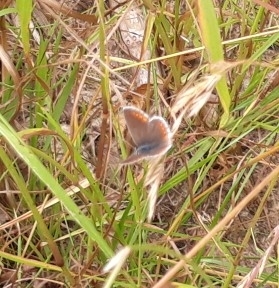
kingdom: Animalia
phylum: Arthropoda
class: Insecta
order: Lepidoptera
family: Lycaenidae
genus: Aricia
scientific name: Aricia agestis
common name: Brown argus
